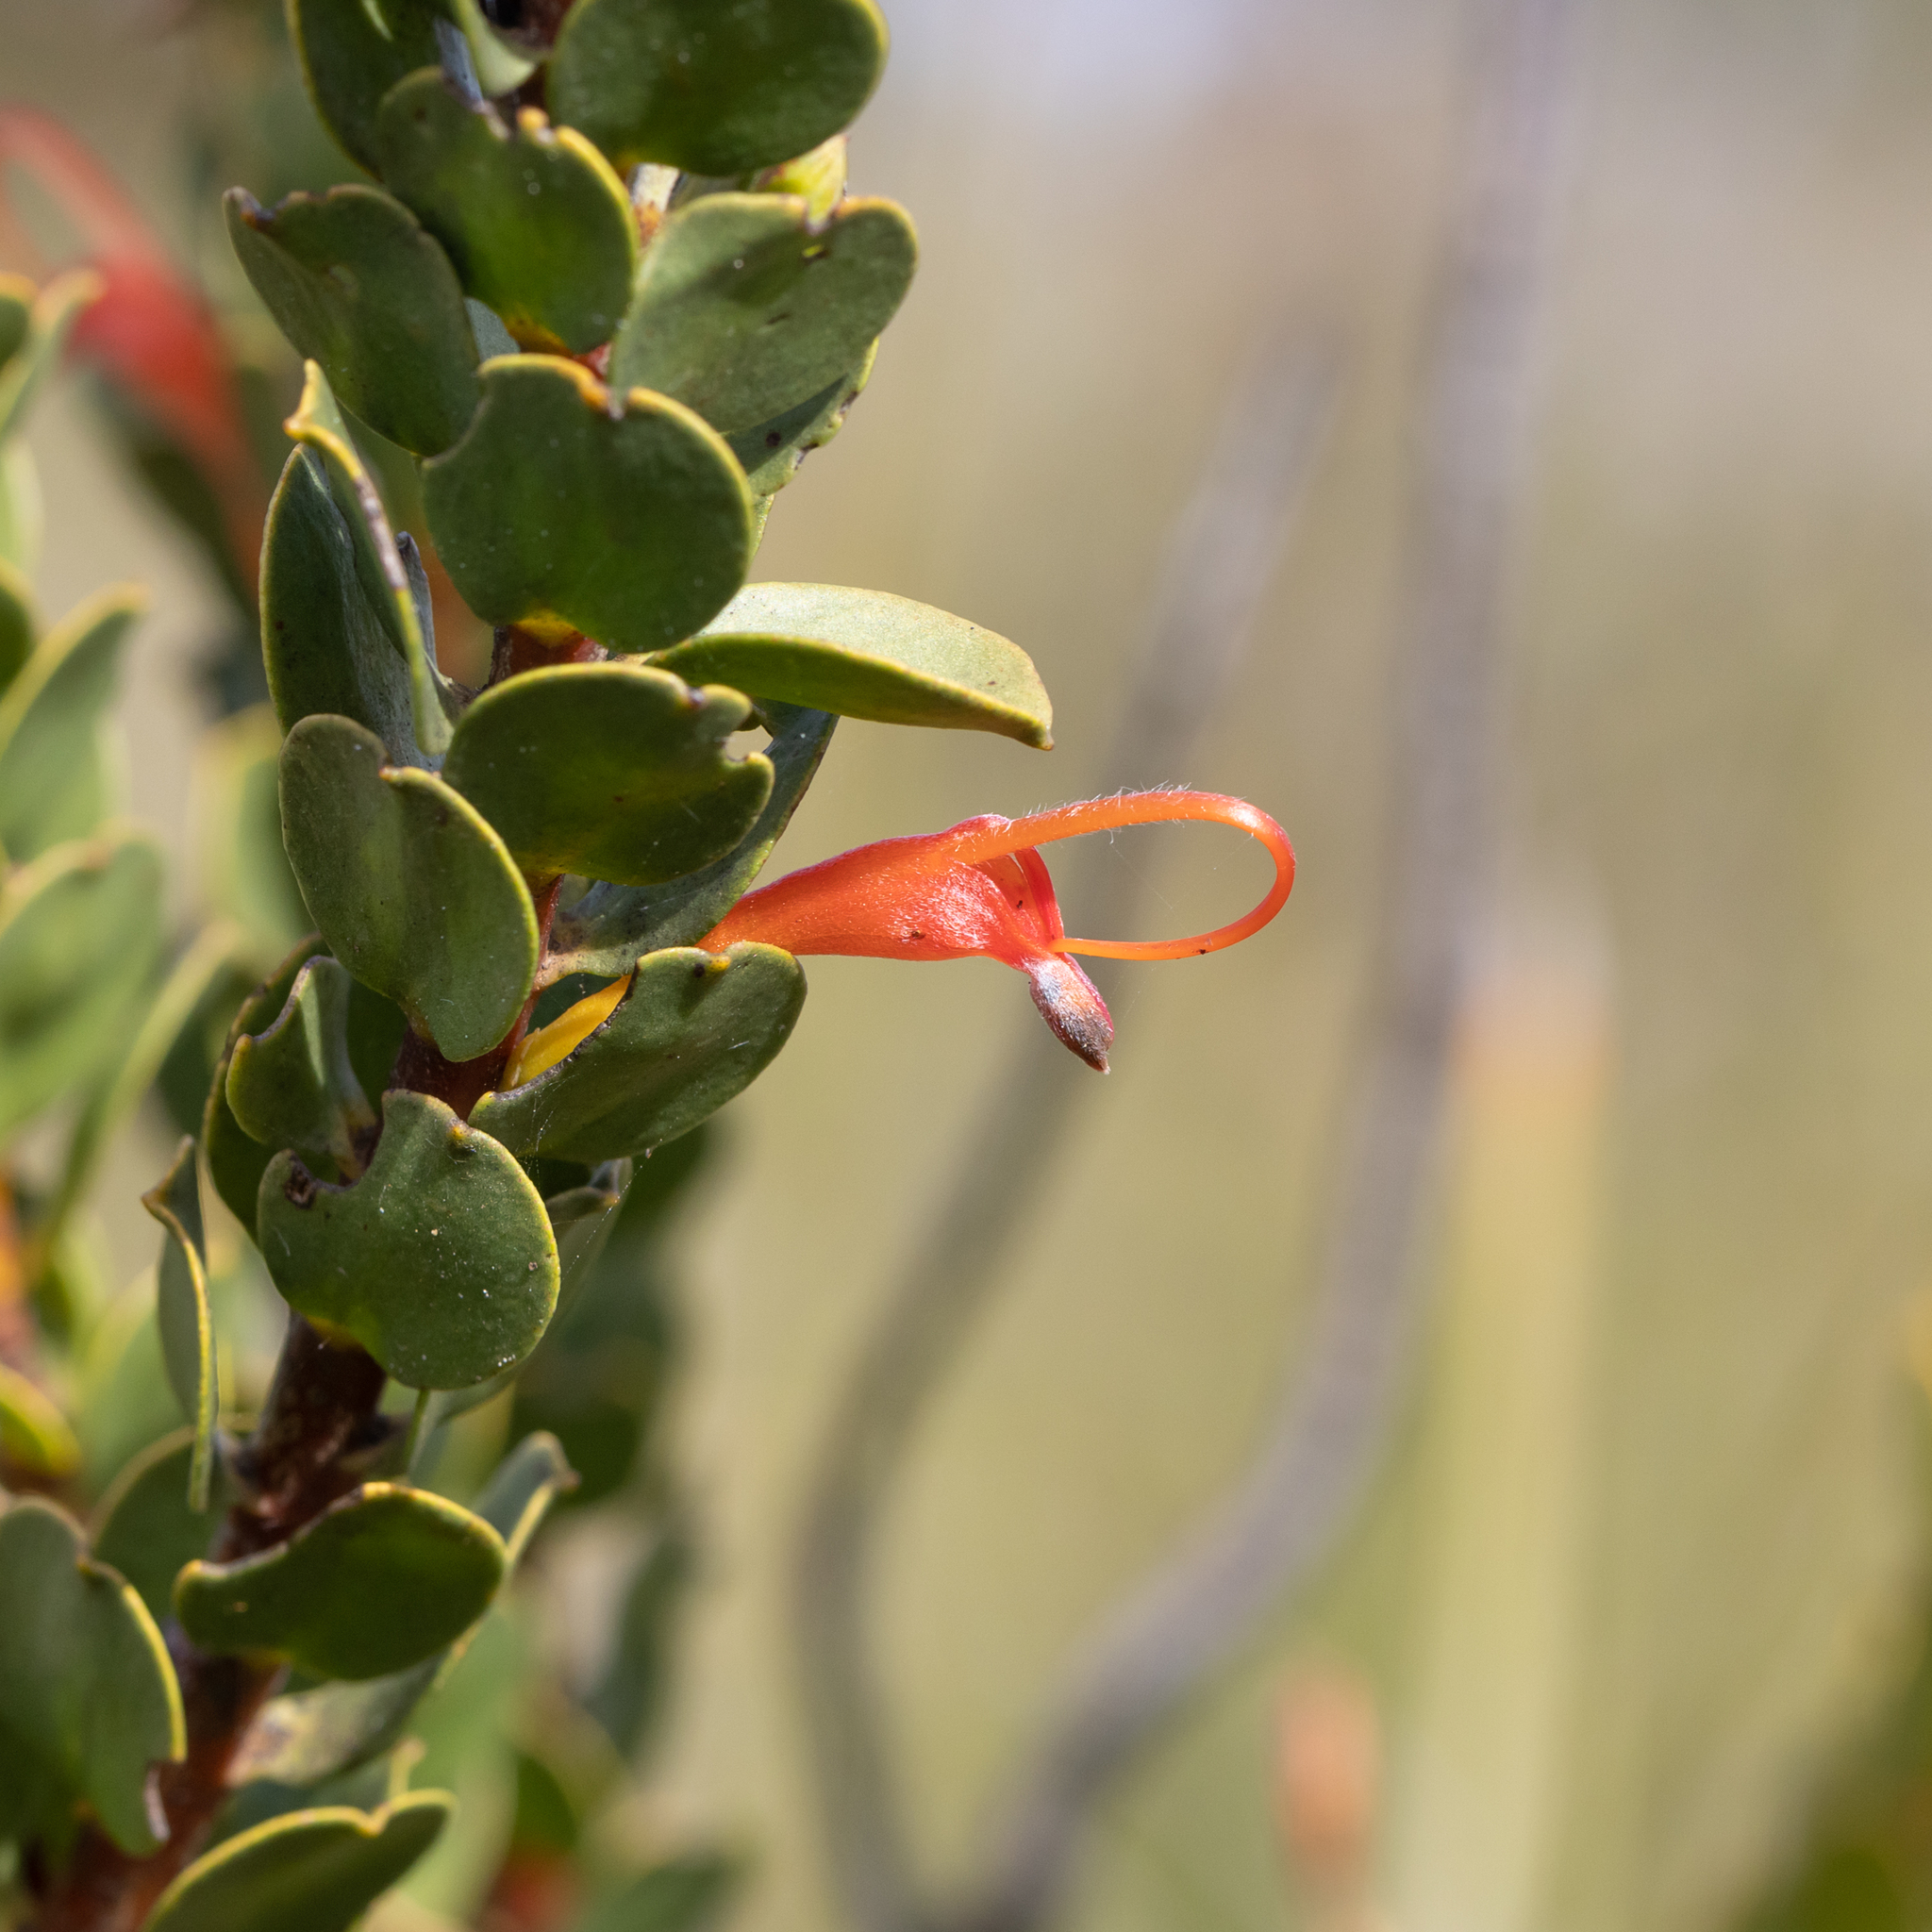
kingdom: Plantae
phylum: Tracheophyta
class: Magnoliopsida
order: Proteales
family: Proteaceae
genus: Adenanthos
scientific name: Adenanthos obovatus
